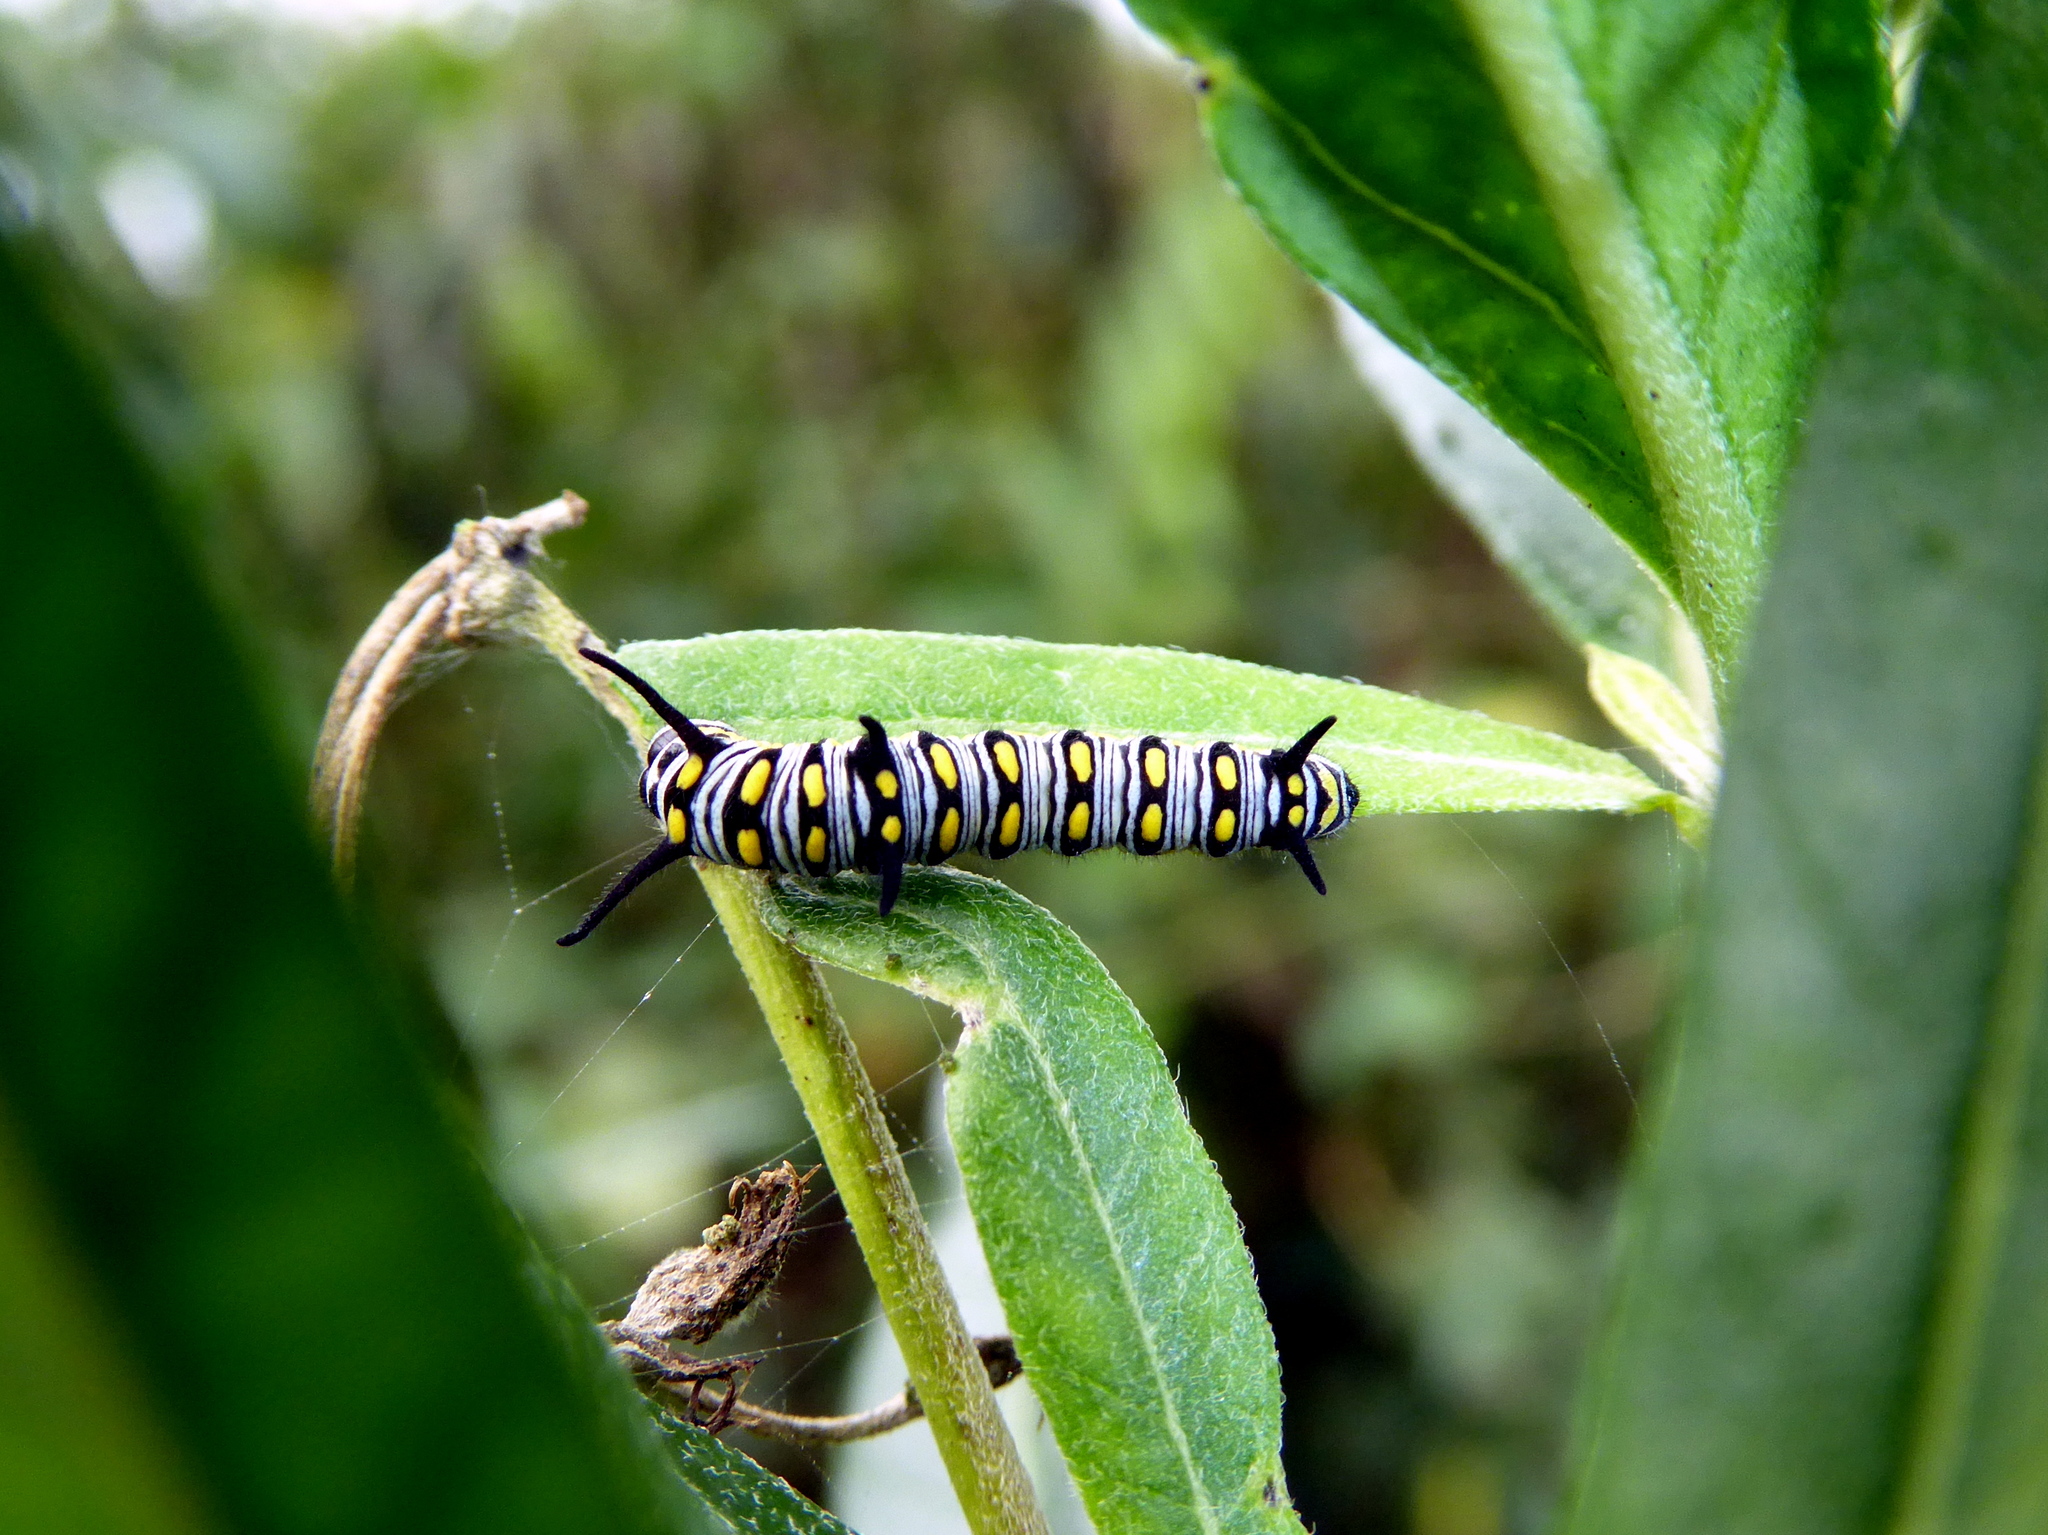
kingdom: Animalia
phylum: Arthropoda
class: Insecta
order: Lepidoptera
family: Nymphalidae
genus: Danaus
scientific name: Danaus chrysippus
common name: Plain tiger
